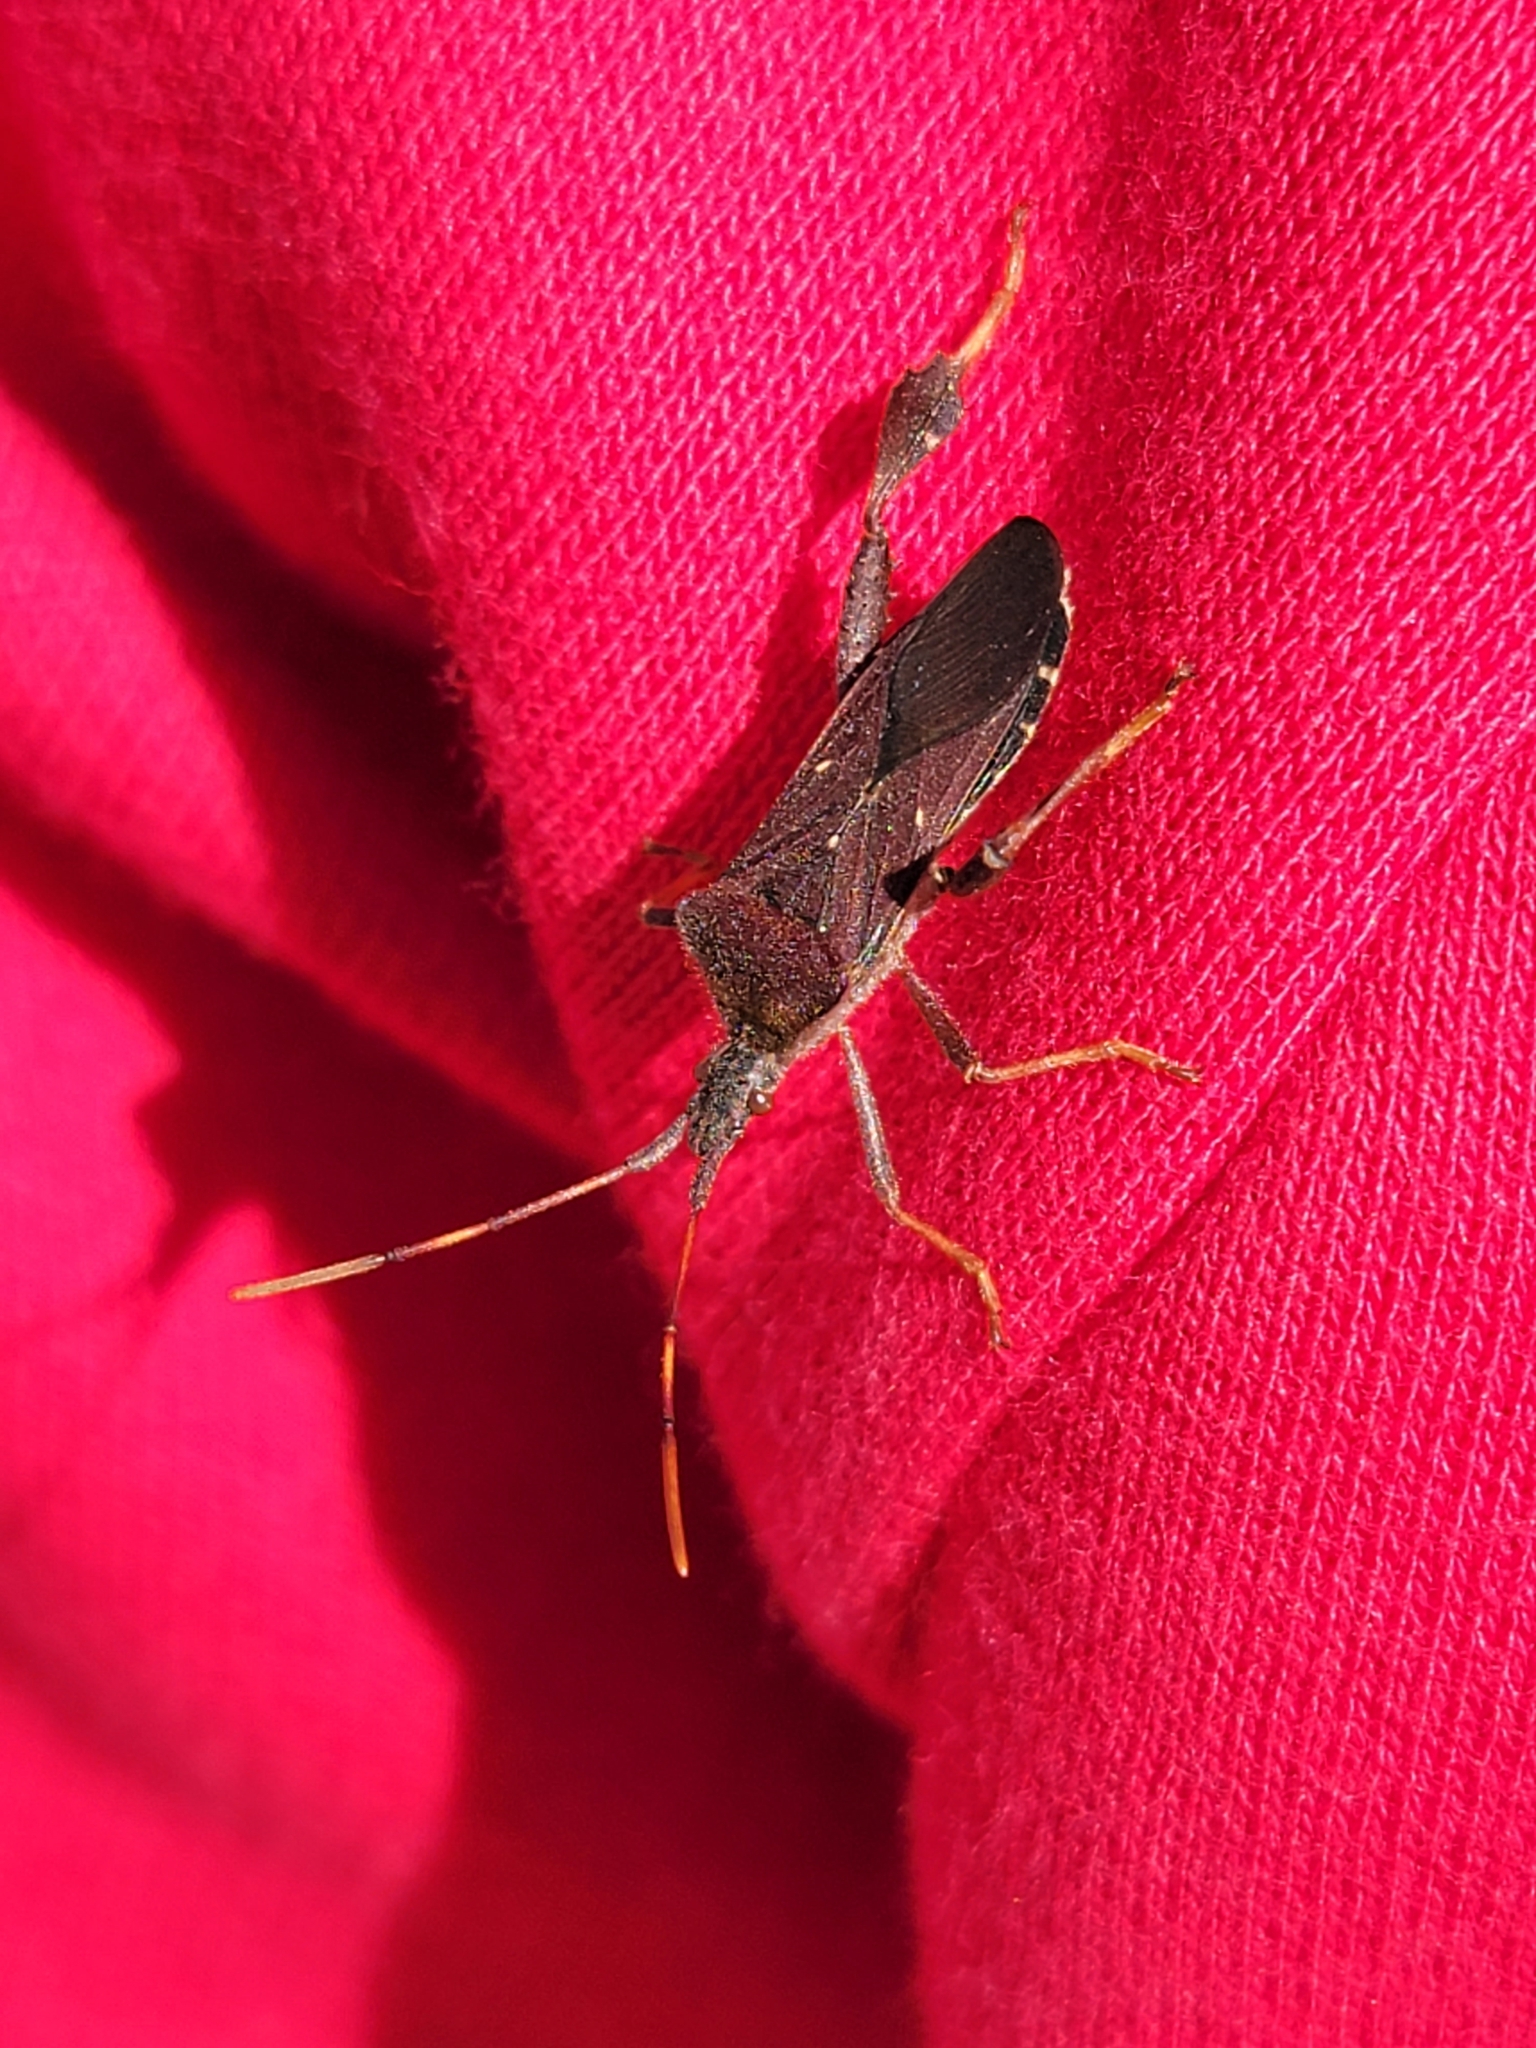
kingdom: Animalia
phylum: Arthropoda
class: Insecta
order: Hemiptera
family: Coreidae
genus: Leptoglossus
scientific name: Leptoglossus oppositus
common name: Northern leaf-footed bug
